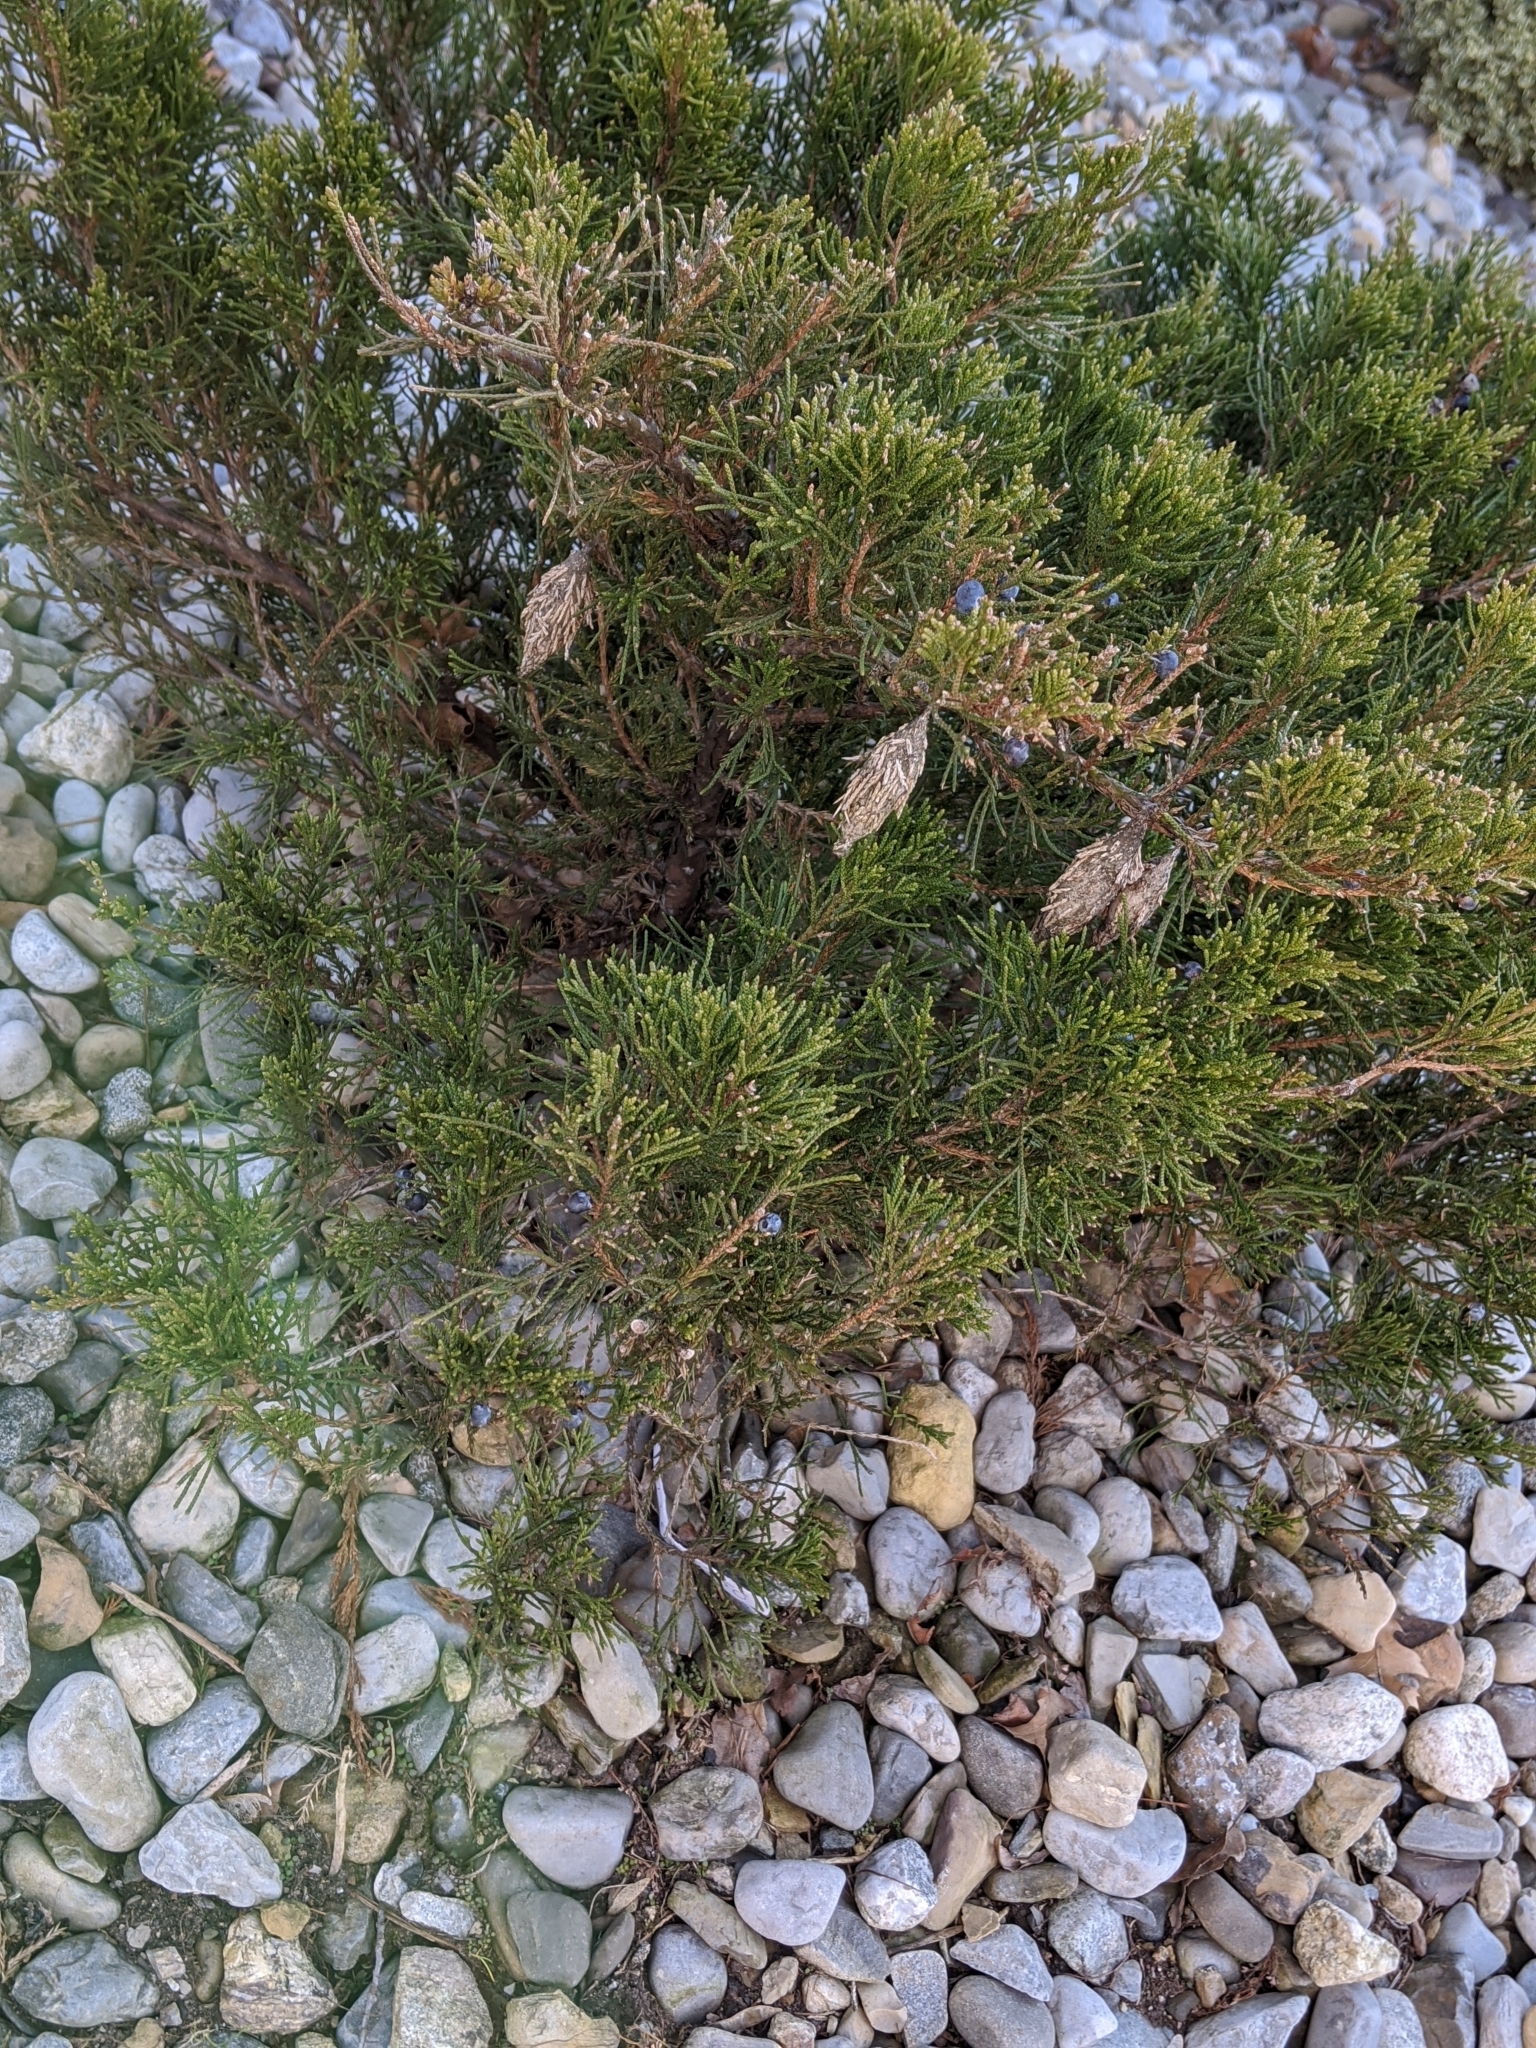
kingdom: Animalia
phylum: Arthropoda
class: Insecta
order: Lepidoptera
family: Psychidae
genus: Thyridopteryx
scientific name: Thyridopteryx ephemeraeformis
